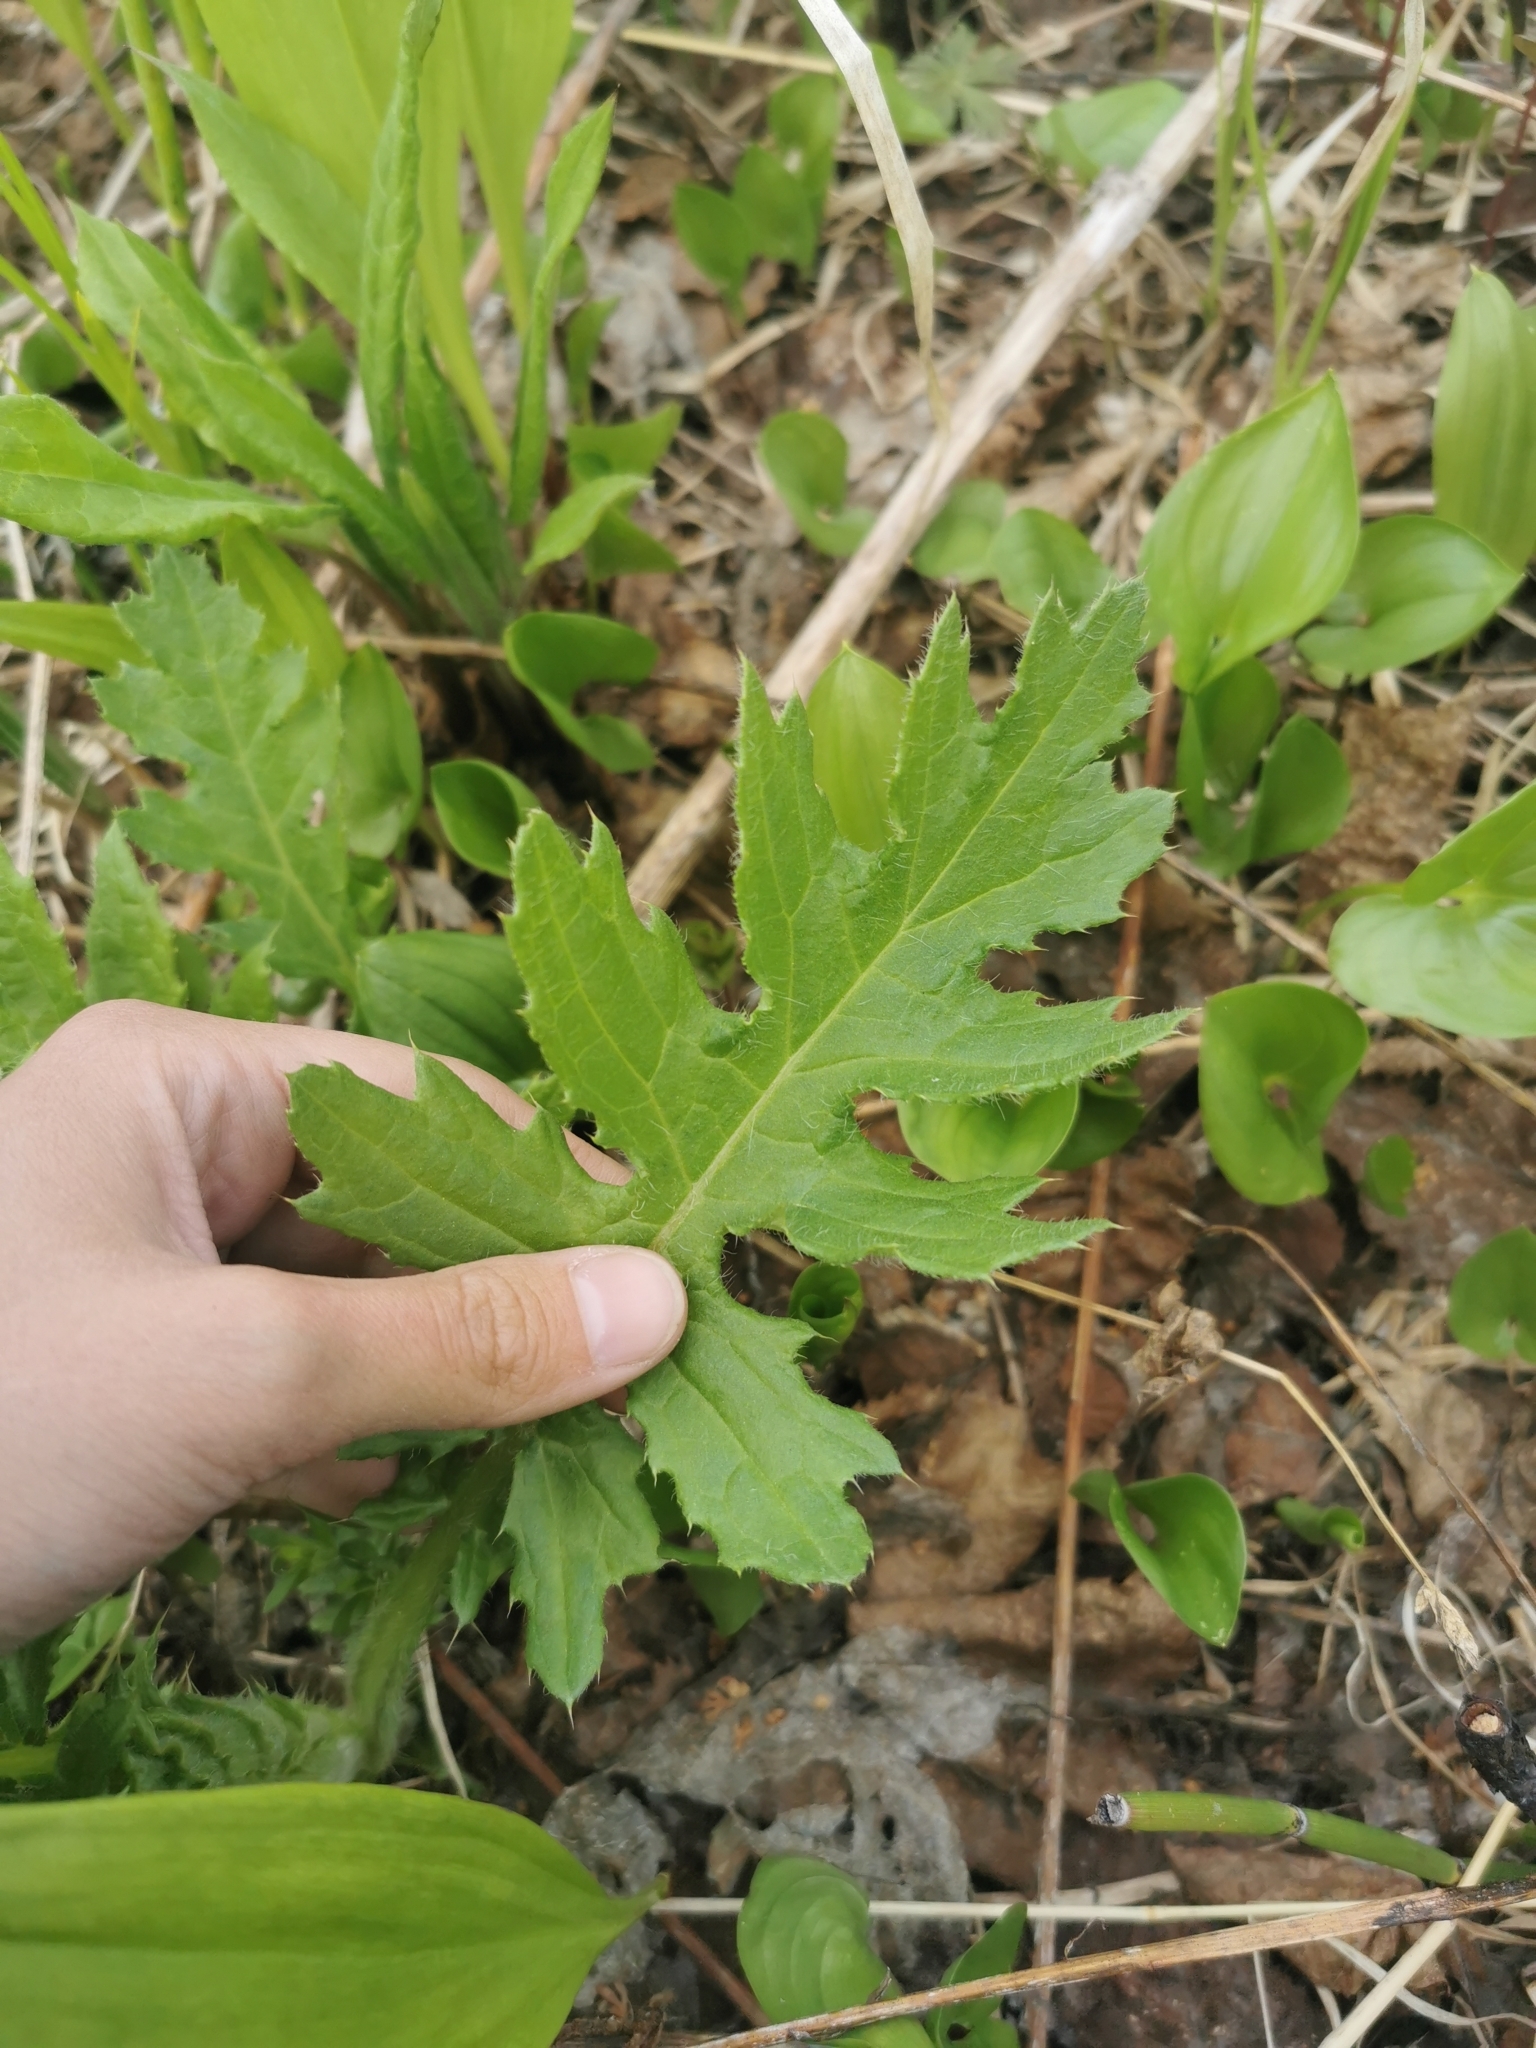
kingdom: Plantae
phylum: Tracheophyta
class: Magnoliopsida
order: Asterales
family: Asteraceae
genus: Cirsium
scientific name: Cirsium kamtschaticum
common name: Kamchatka thistle
